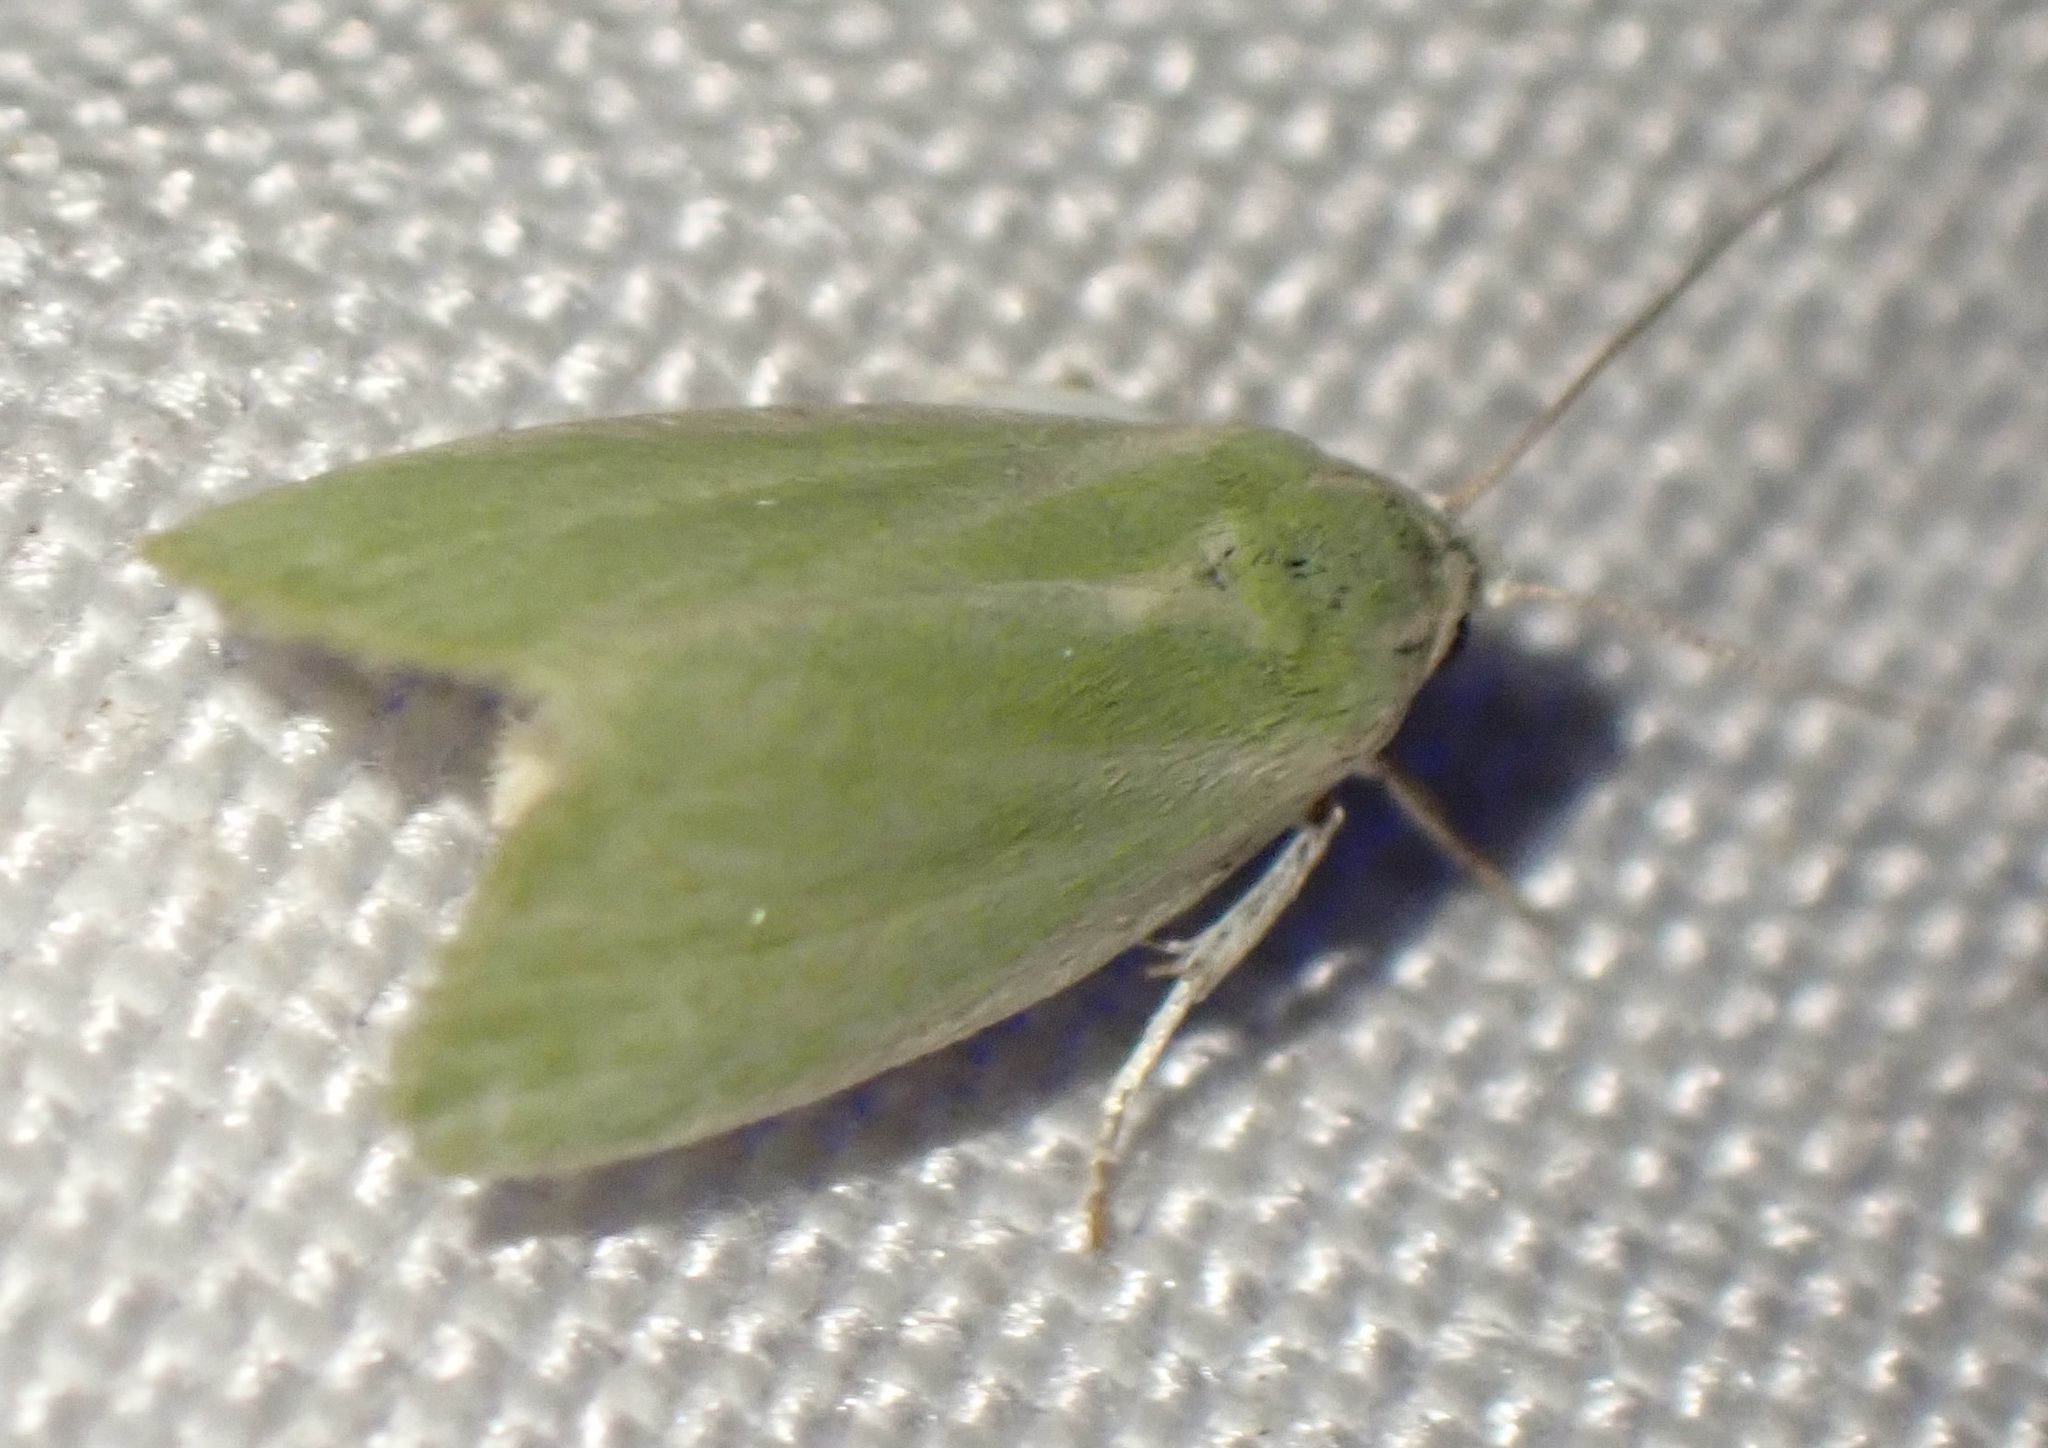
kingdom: Animalia
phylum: Arthropoda
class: Insecta
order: Lepidoptera
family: Nolidae
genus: Earias
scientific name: Earias clorana
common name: Cream-bordered green pea
